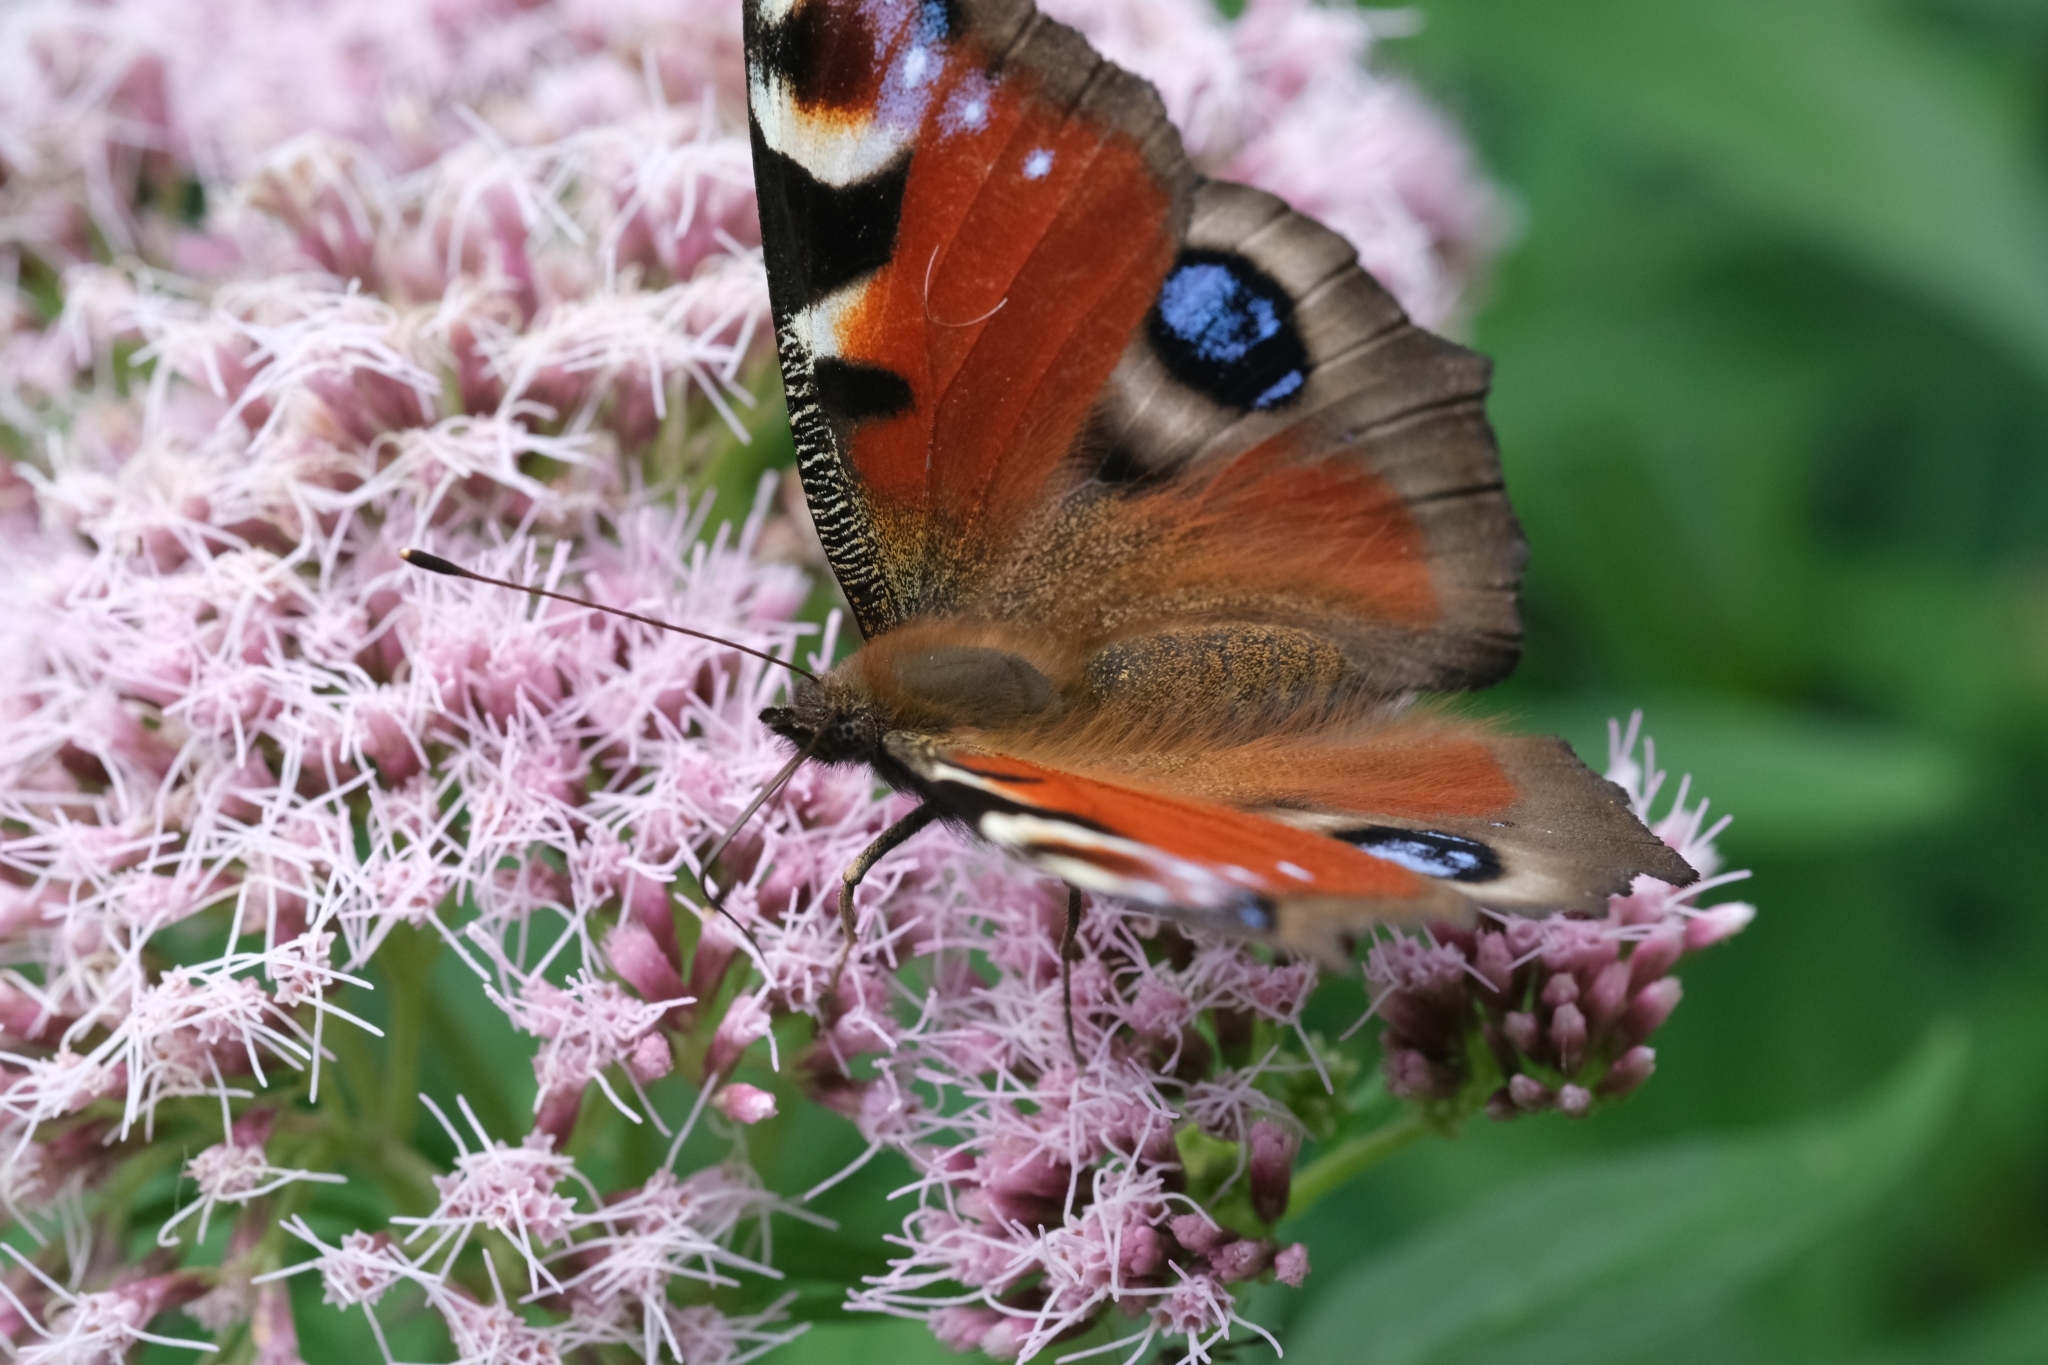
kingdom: Animalia
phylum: Arthropoda
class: Insecta
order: Lepidoptera
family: Nymphalidae
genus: Aglais
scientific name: Aglais io
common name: Peacock
